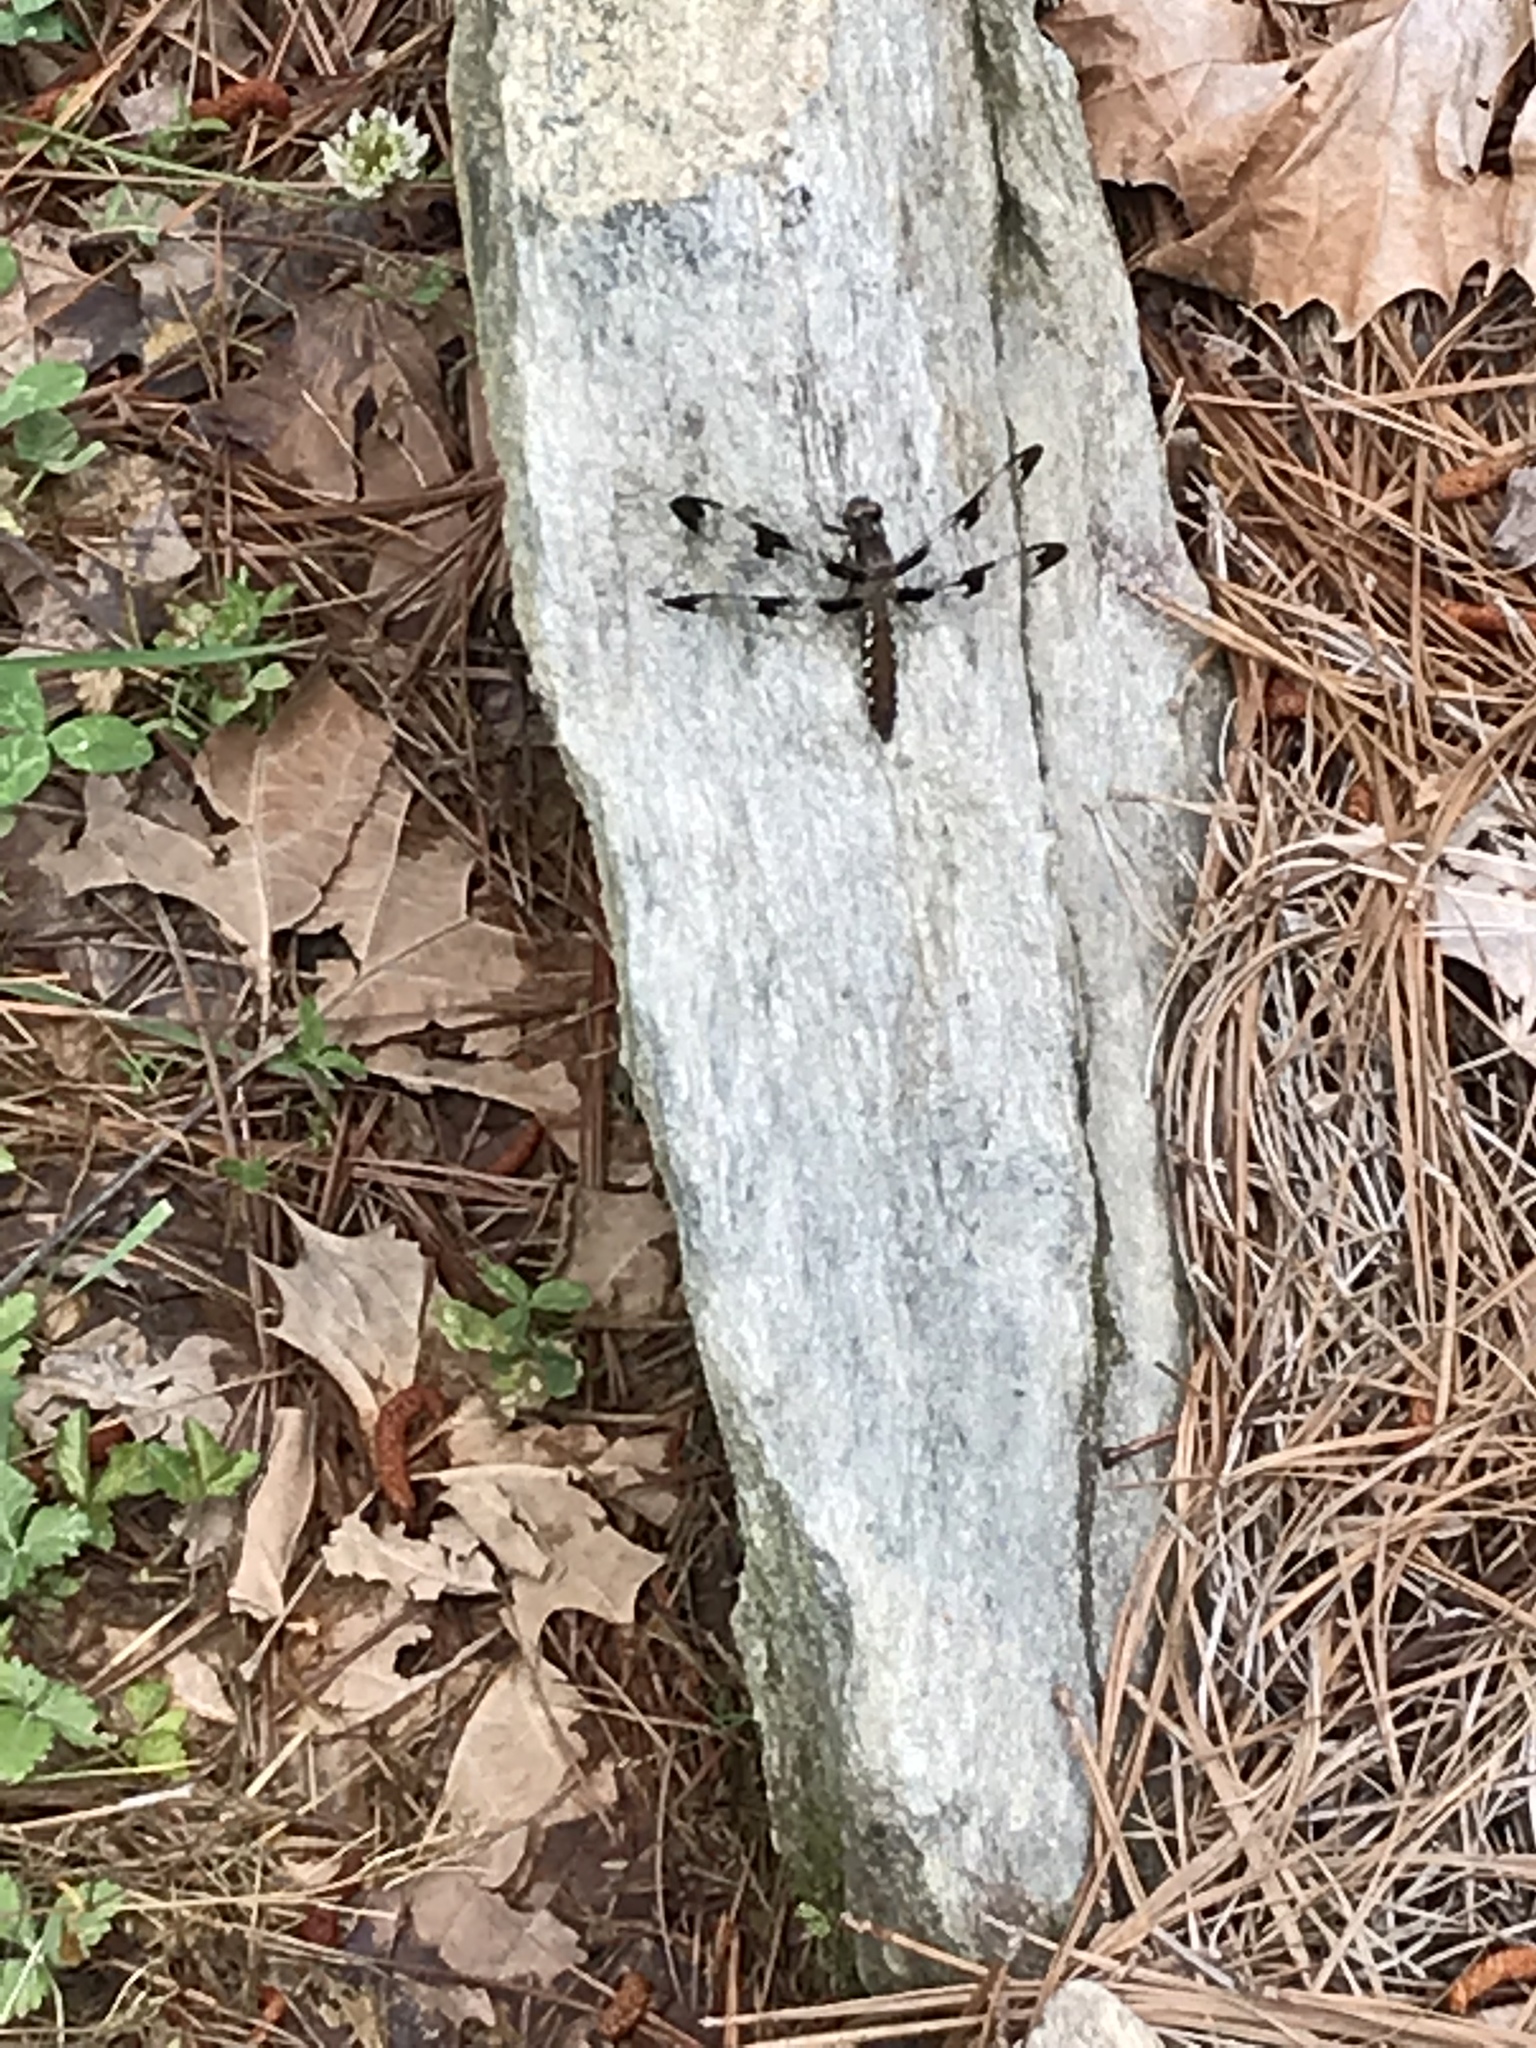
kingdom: Animalia
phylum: Arthropoda
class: Insecta
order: Odonata
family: Libellulidae
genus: Plathemis
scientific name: Plathemis lydia
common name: Common whitetail
